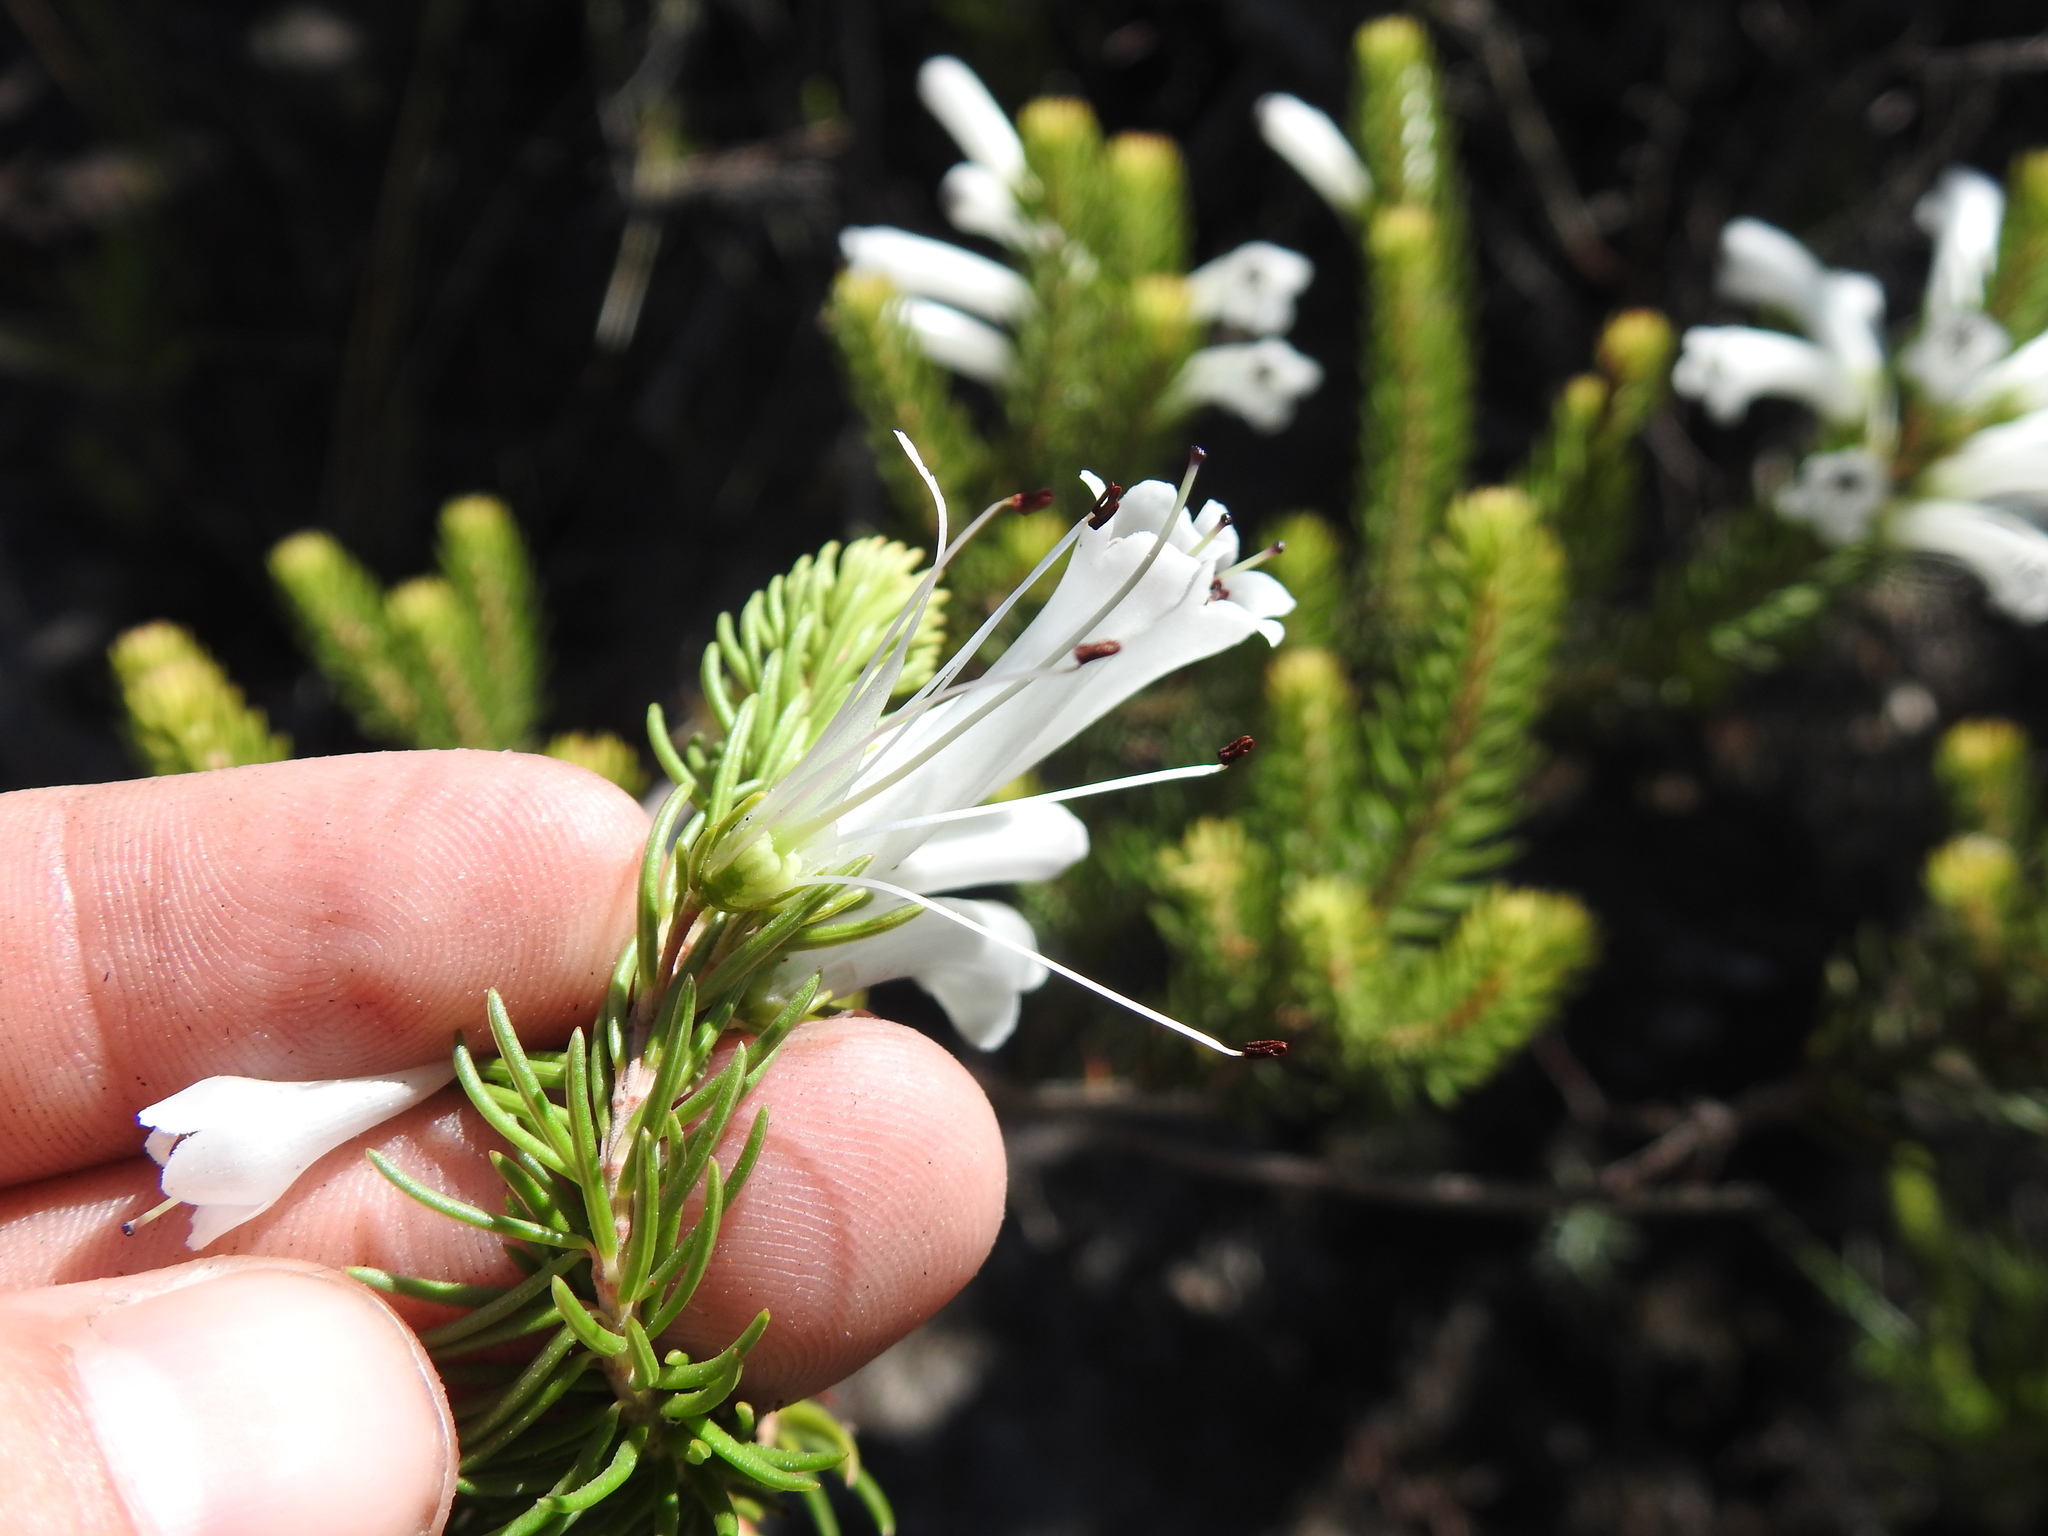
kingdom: Plantae
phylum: Tracheophyta
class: Magnoliopsida
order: Ericales
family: Ericaceae
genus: Erica
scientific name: Erica pinea
